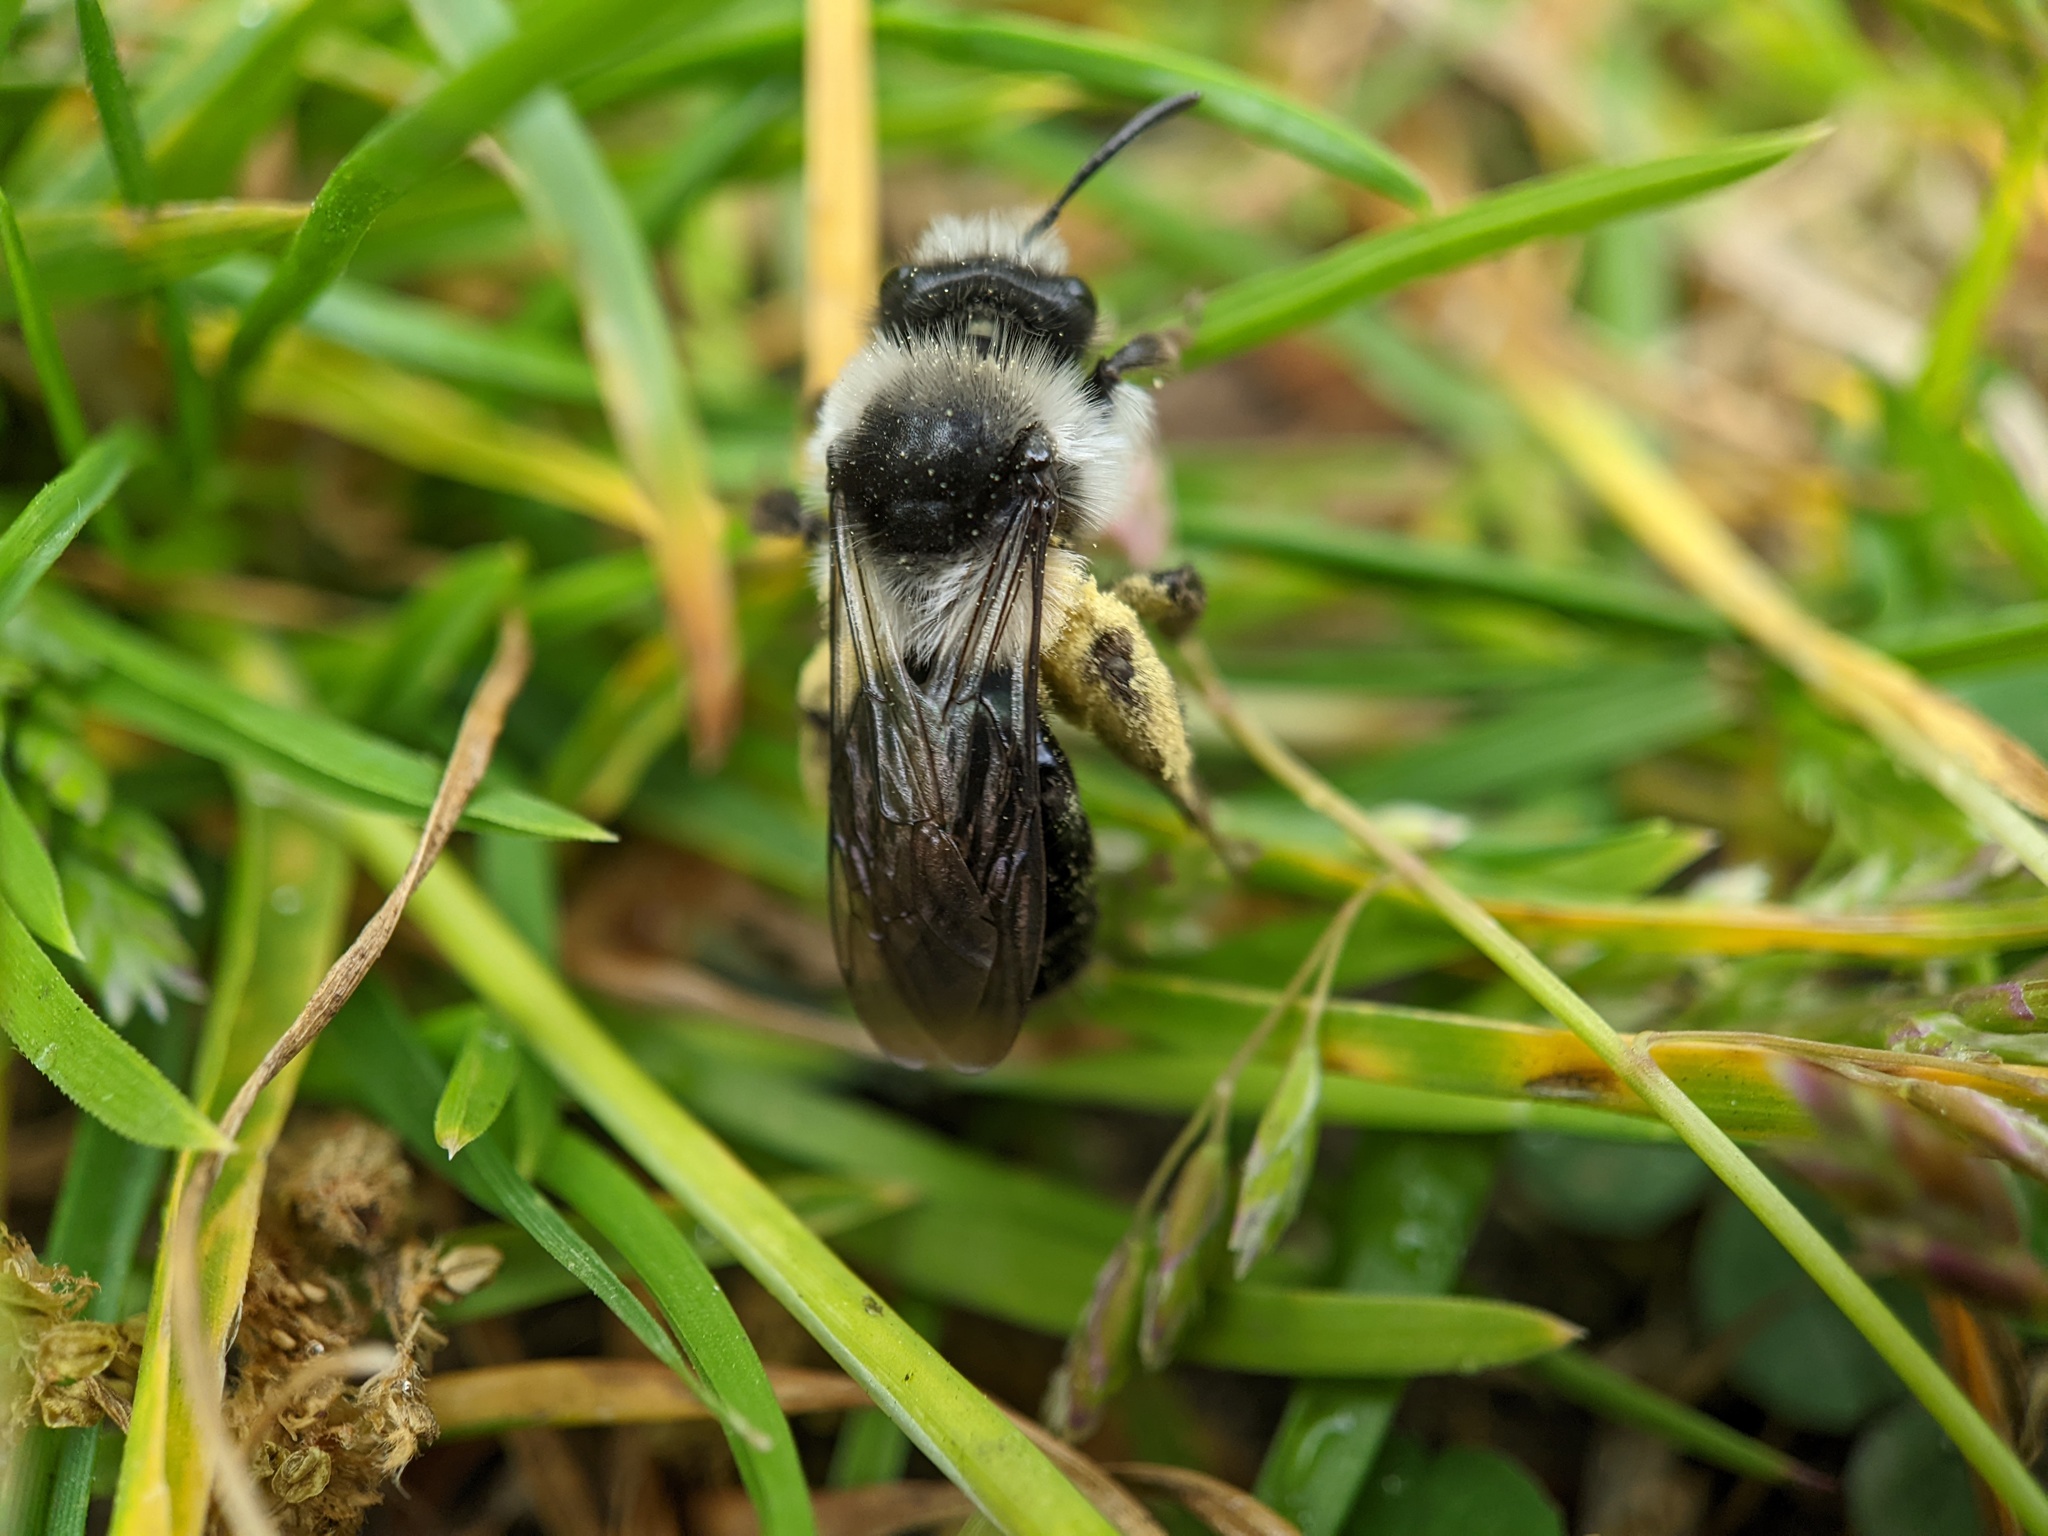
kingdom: Animalia
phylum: Arthropoda
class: Insecta
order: Hymenoptera
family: Andrenidae
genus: Andrena
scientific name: Andrena cineraria
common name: Ashy mining bee
